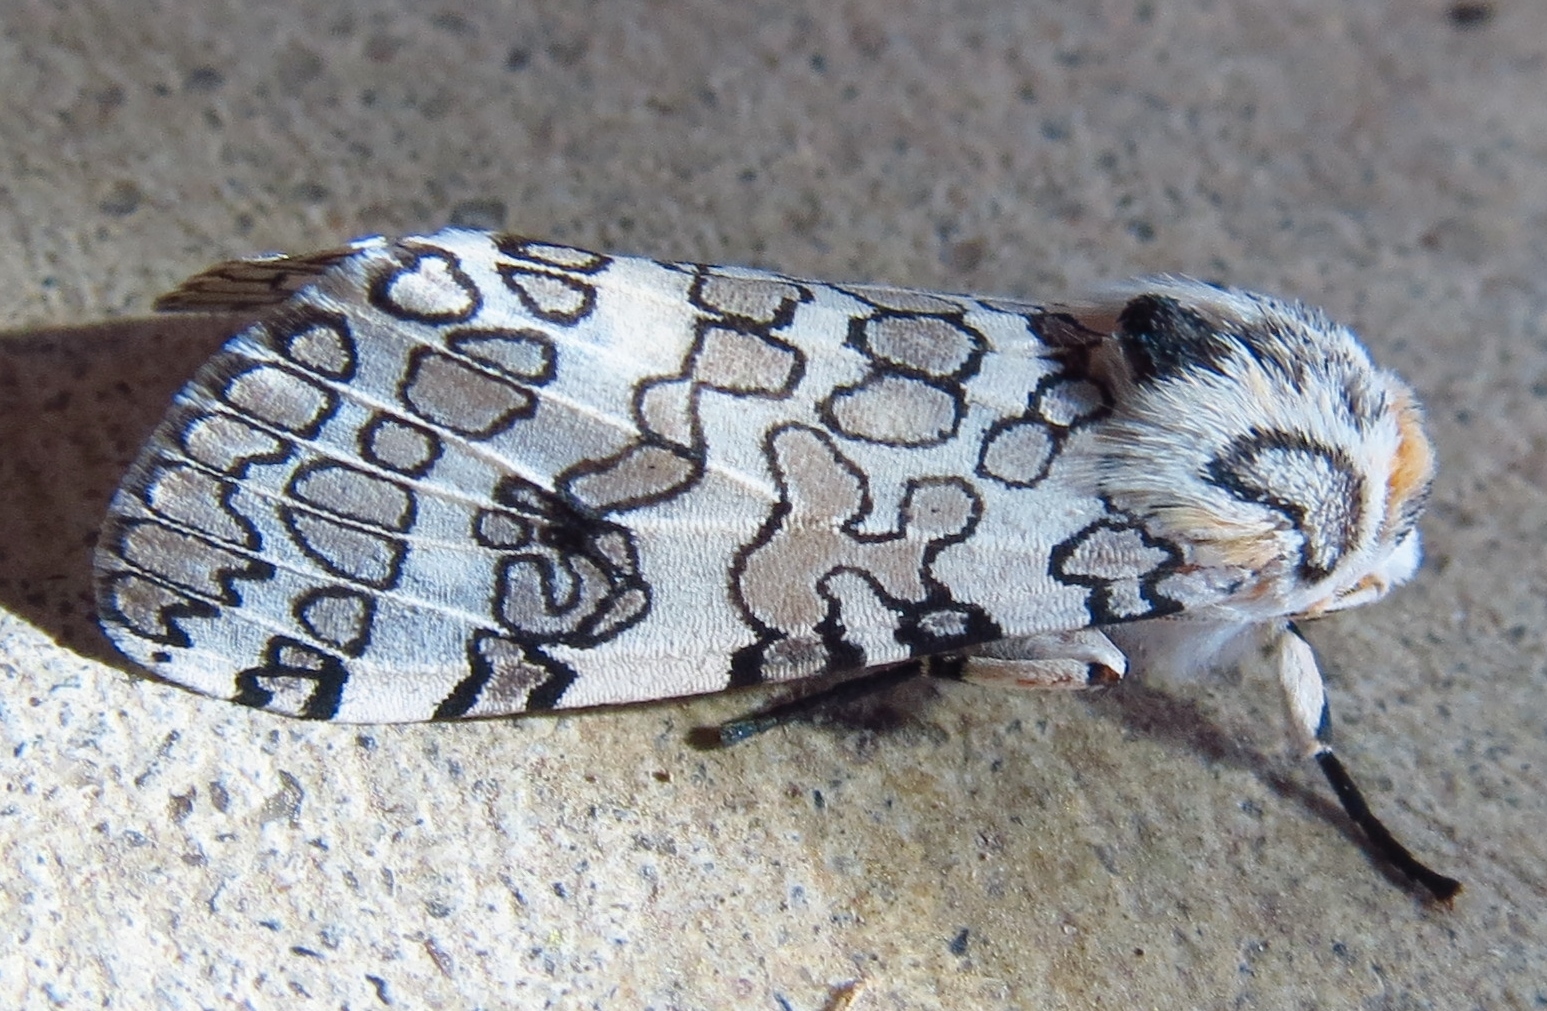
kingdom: Animalia
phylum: Arthropoda
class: Insecta
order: Lepidoptera
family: Erebidae
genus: Hypercompe
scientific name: Hypercompe oslari
